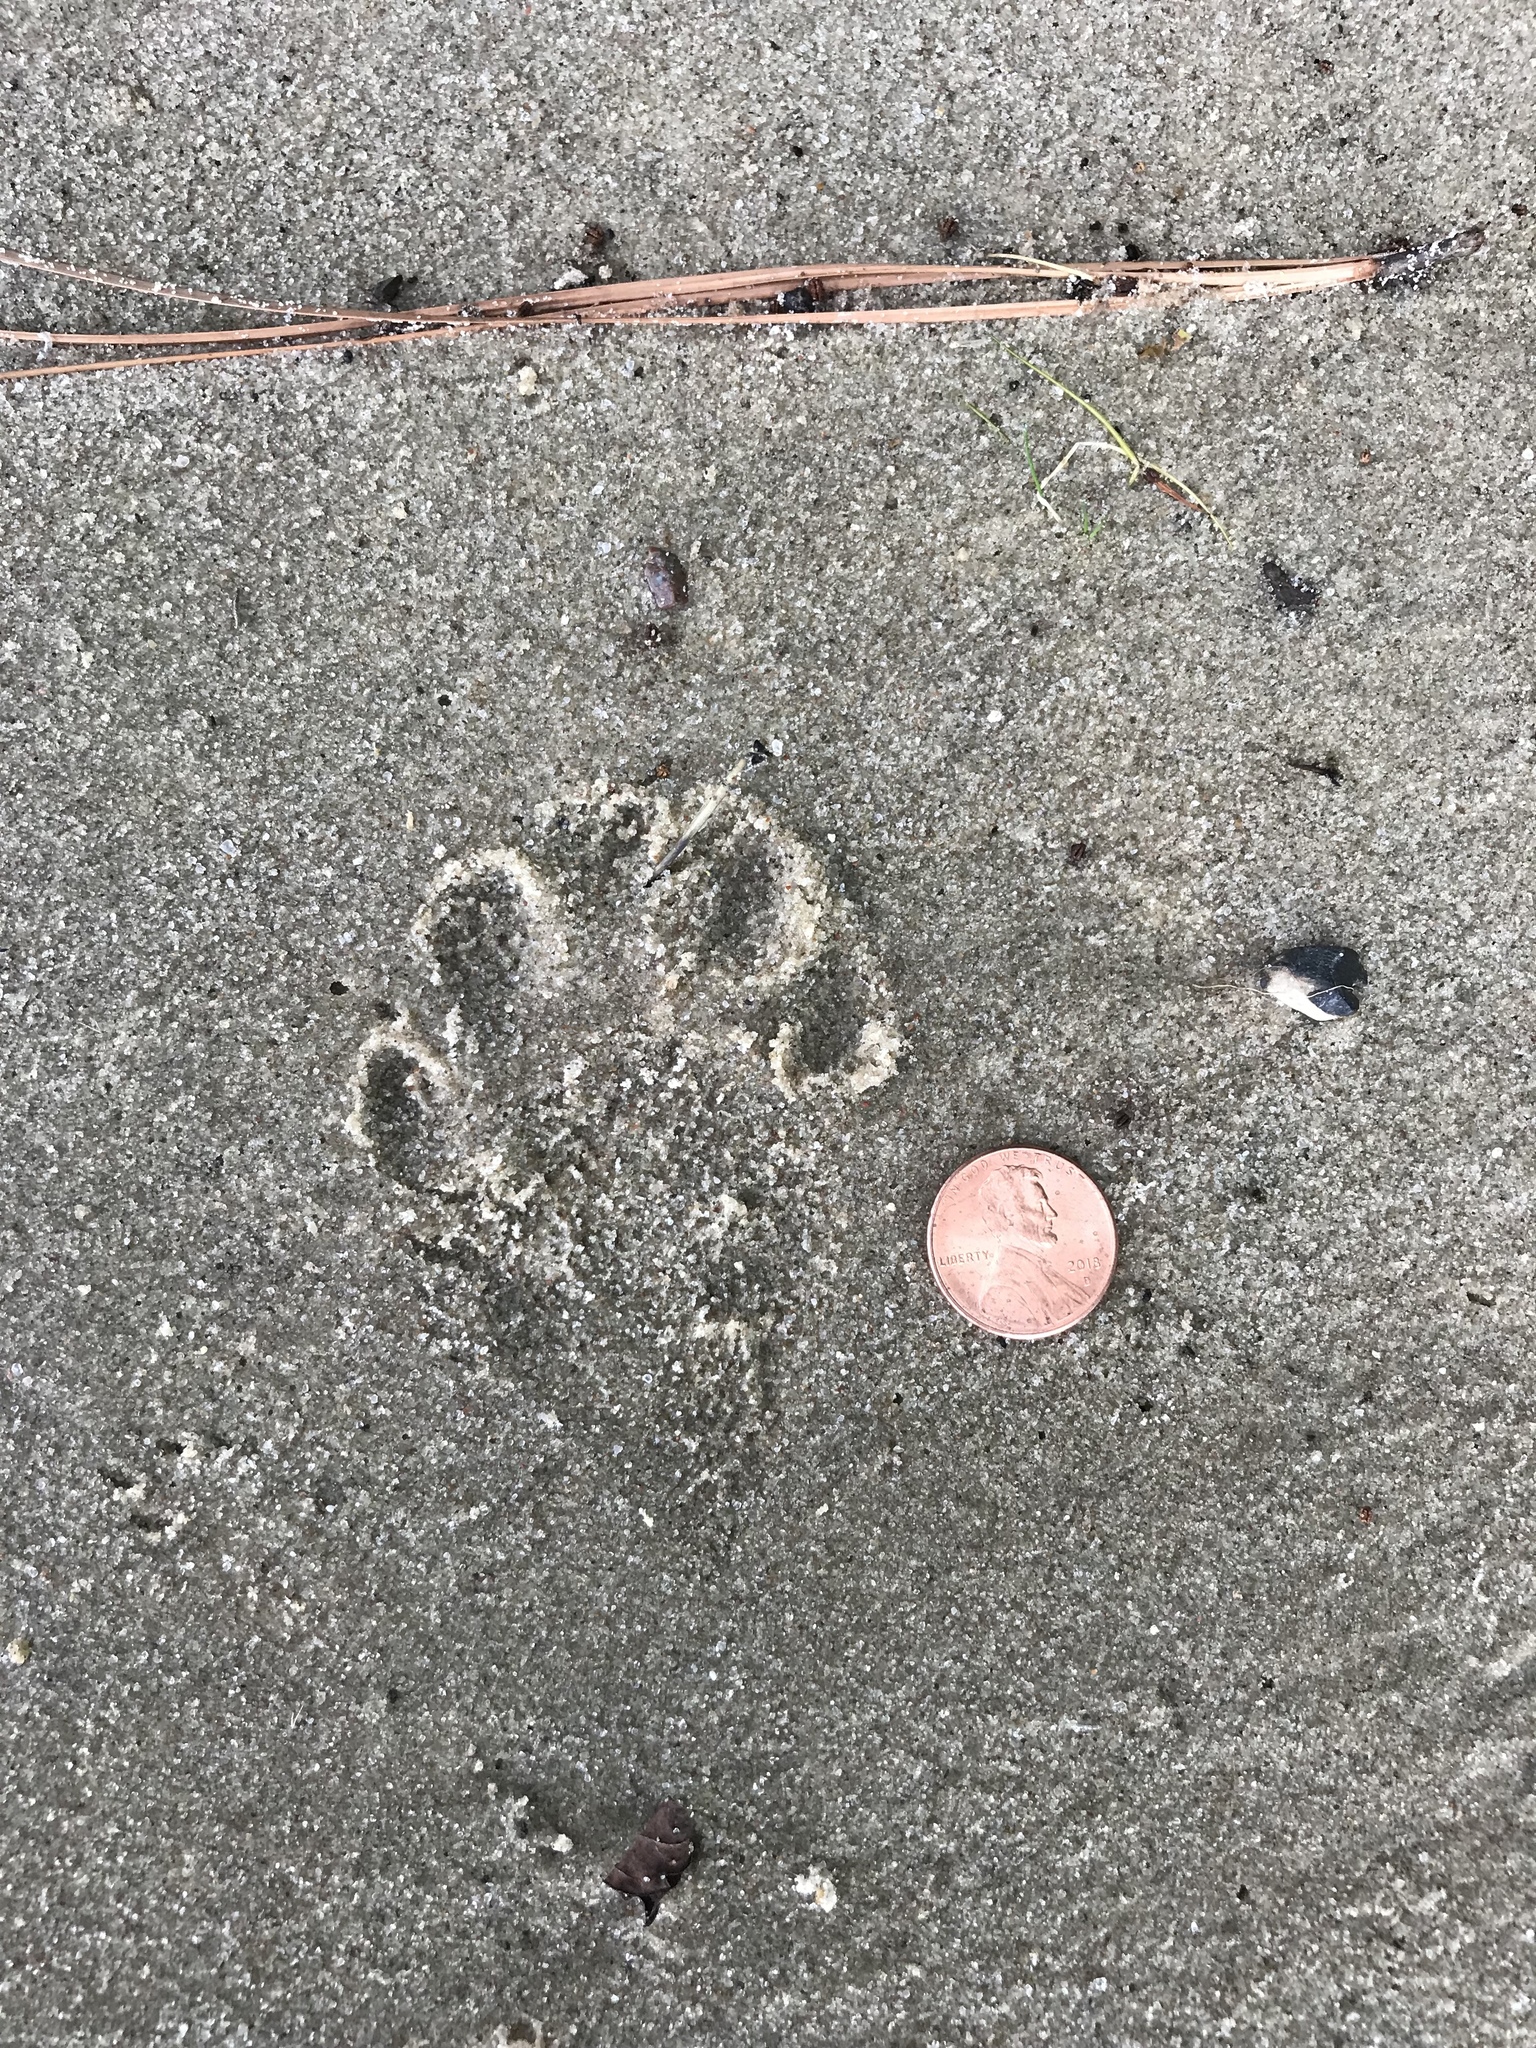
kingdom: Animalia
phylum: Chordata
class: Mammalia
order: Carnivora
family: Procyonidae
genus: Procyon
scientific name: Procyon lotor
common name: Raccoon
